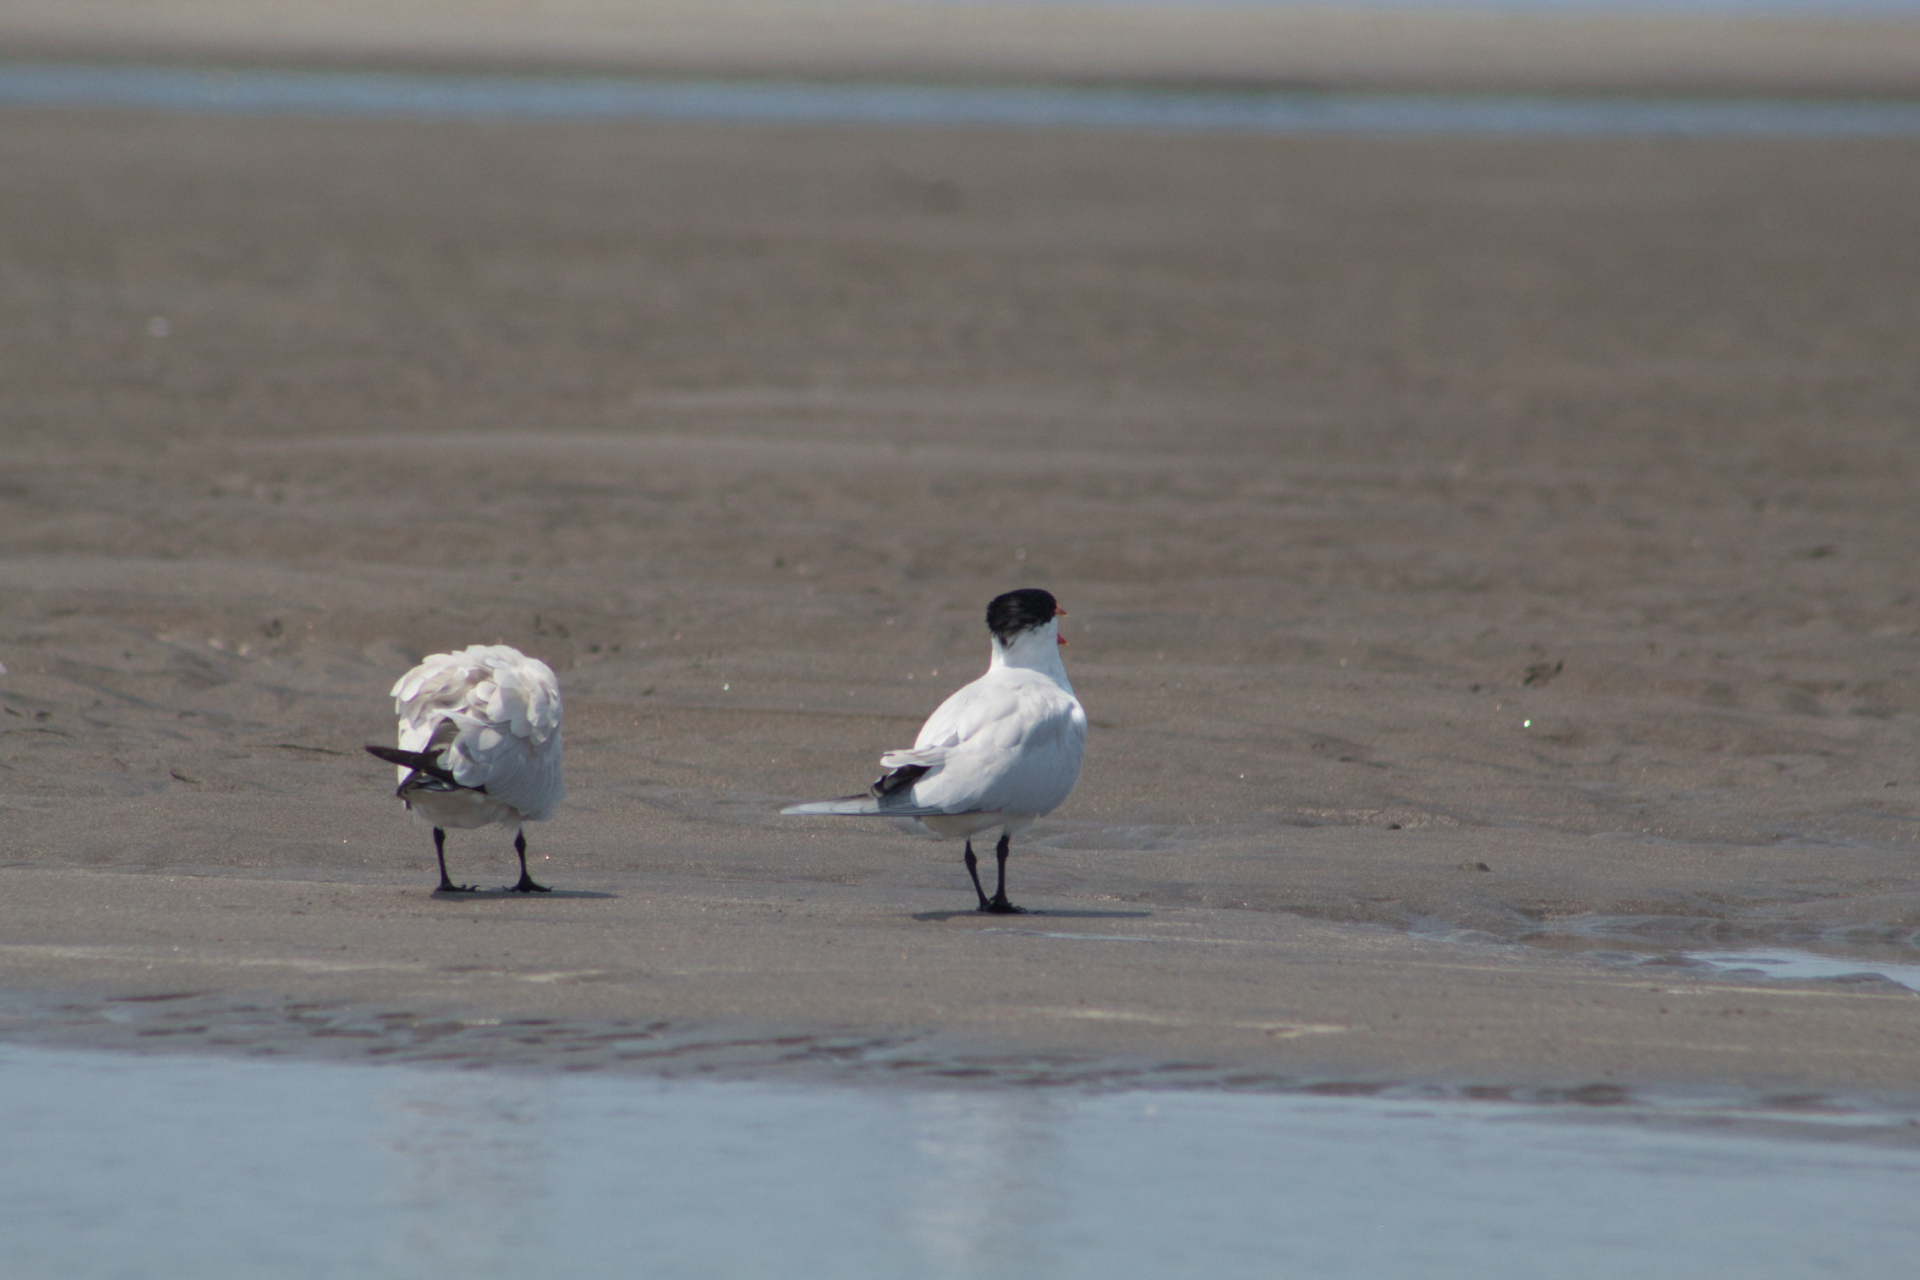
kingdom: Animalia
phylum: Chordata
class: Aves
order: Charadriiformes
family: Laridae
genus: Hydroprogne
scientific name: Hydroprogne caspia
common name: Caspian tern
